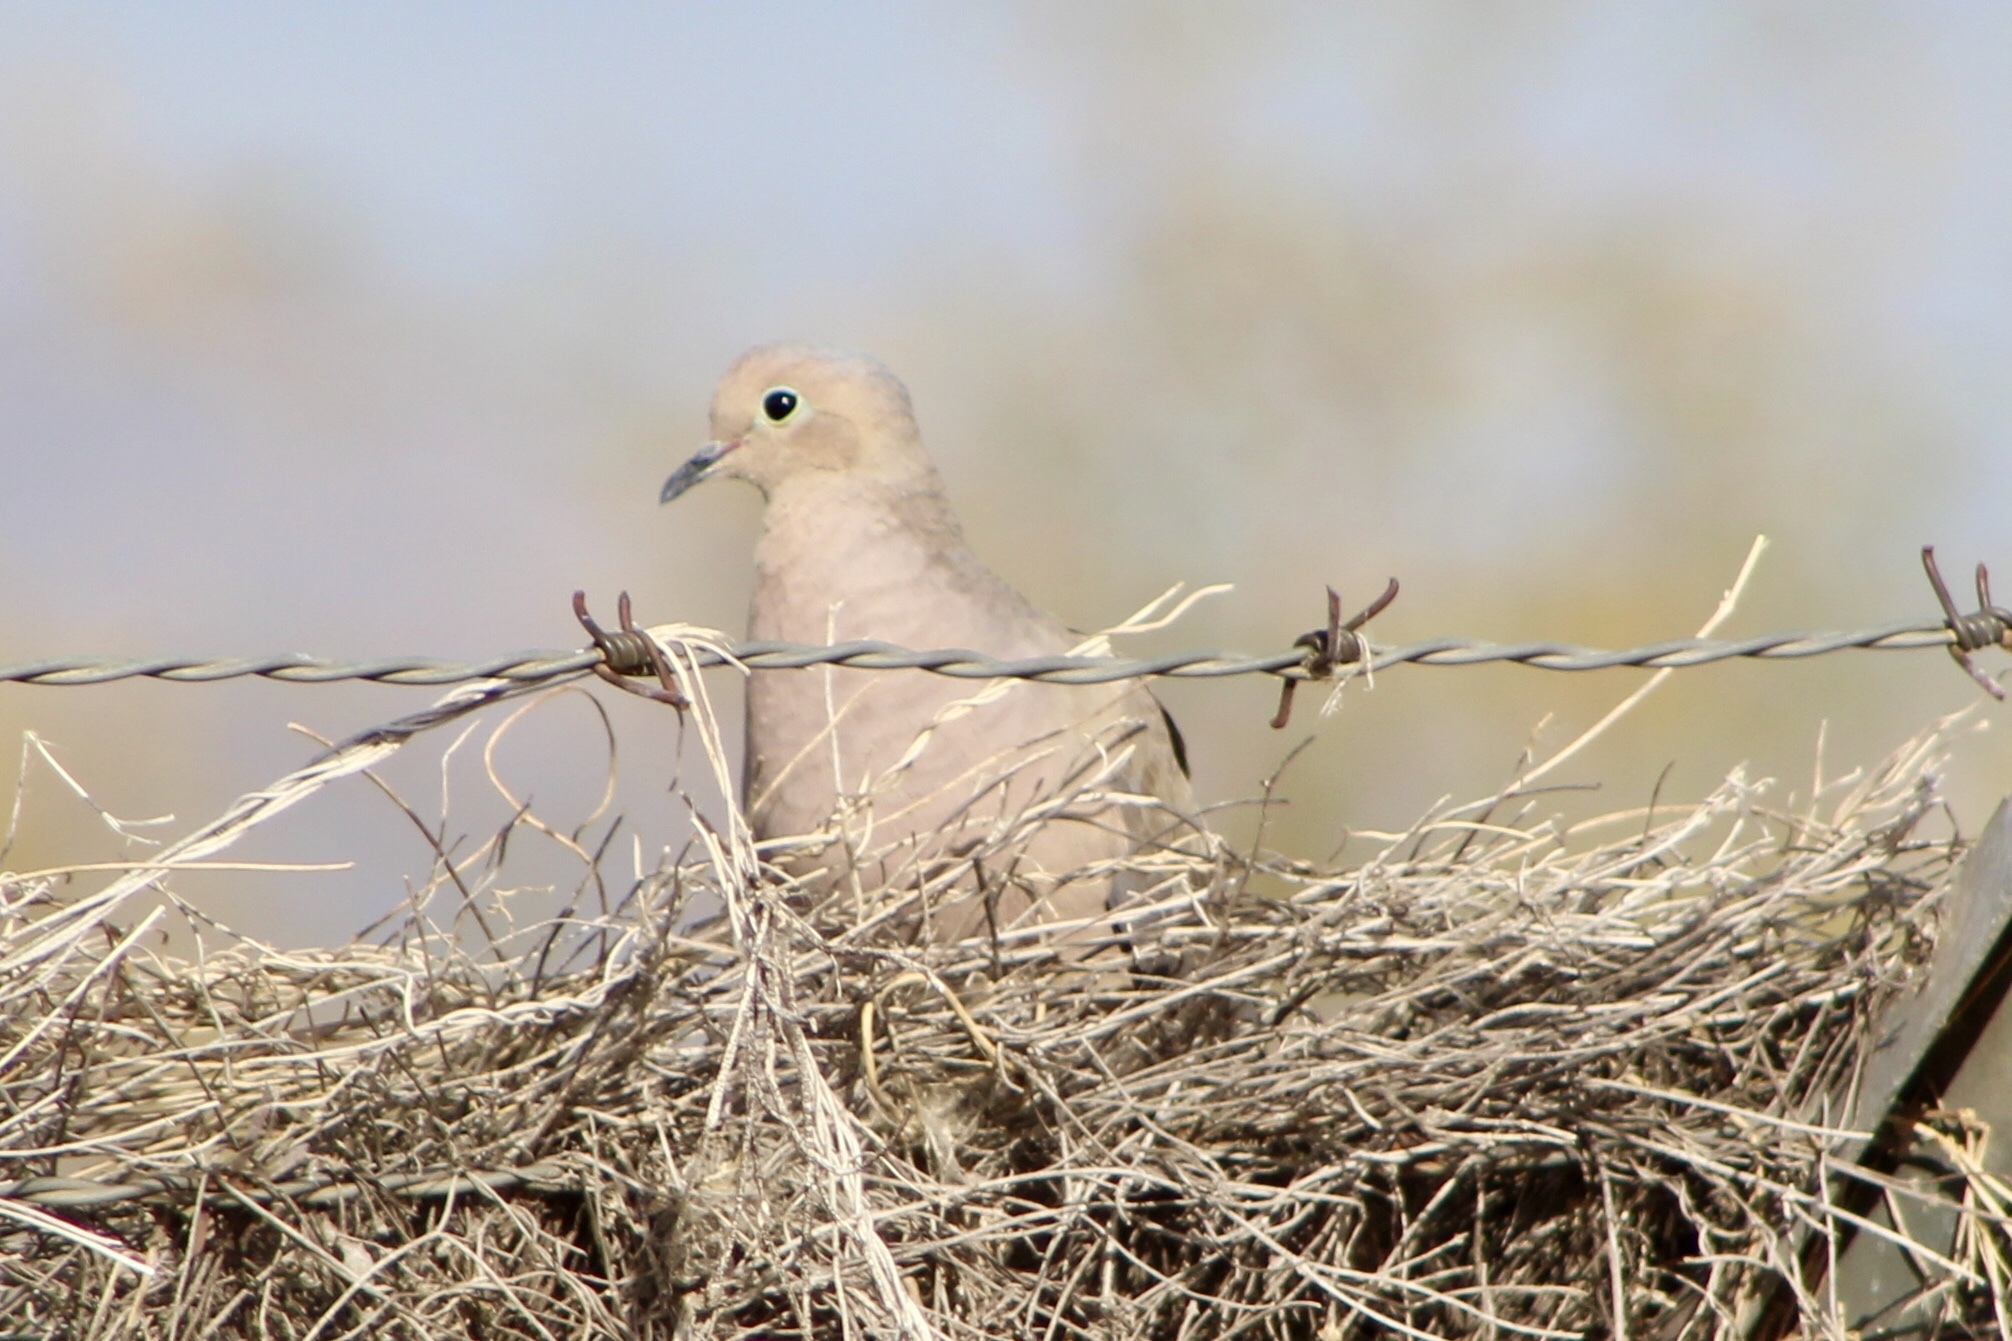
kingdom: Animalia
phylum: Chordata
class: Aves
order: Columbiformes
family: Columbidae
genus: Zenaida
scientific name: Zenaida macroura
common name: Mourning dove
